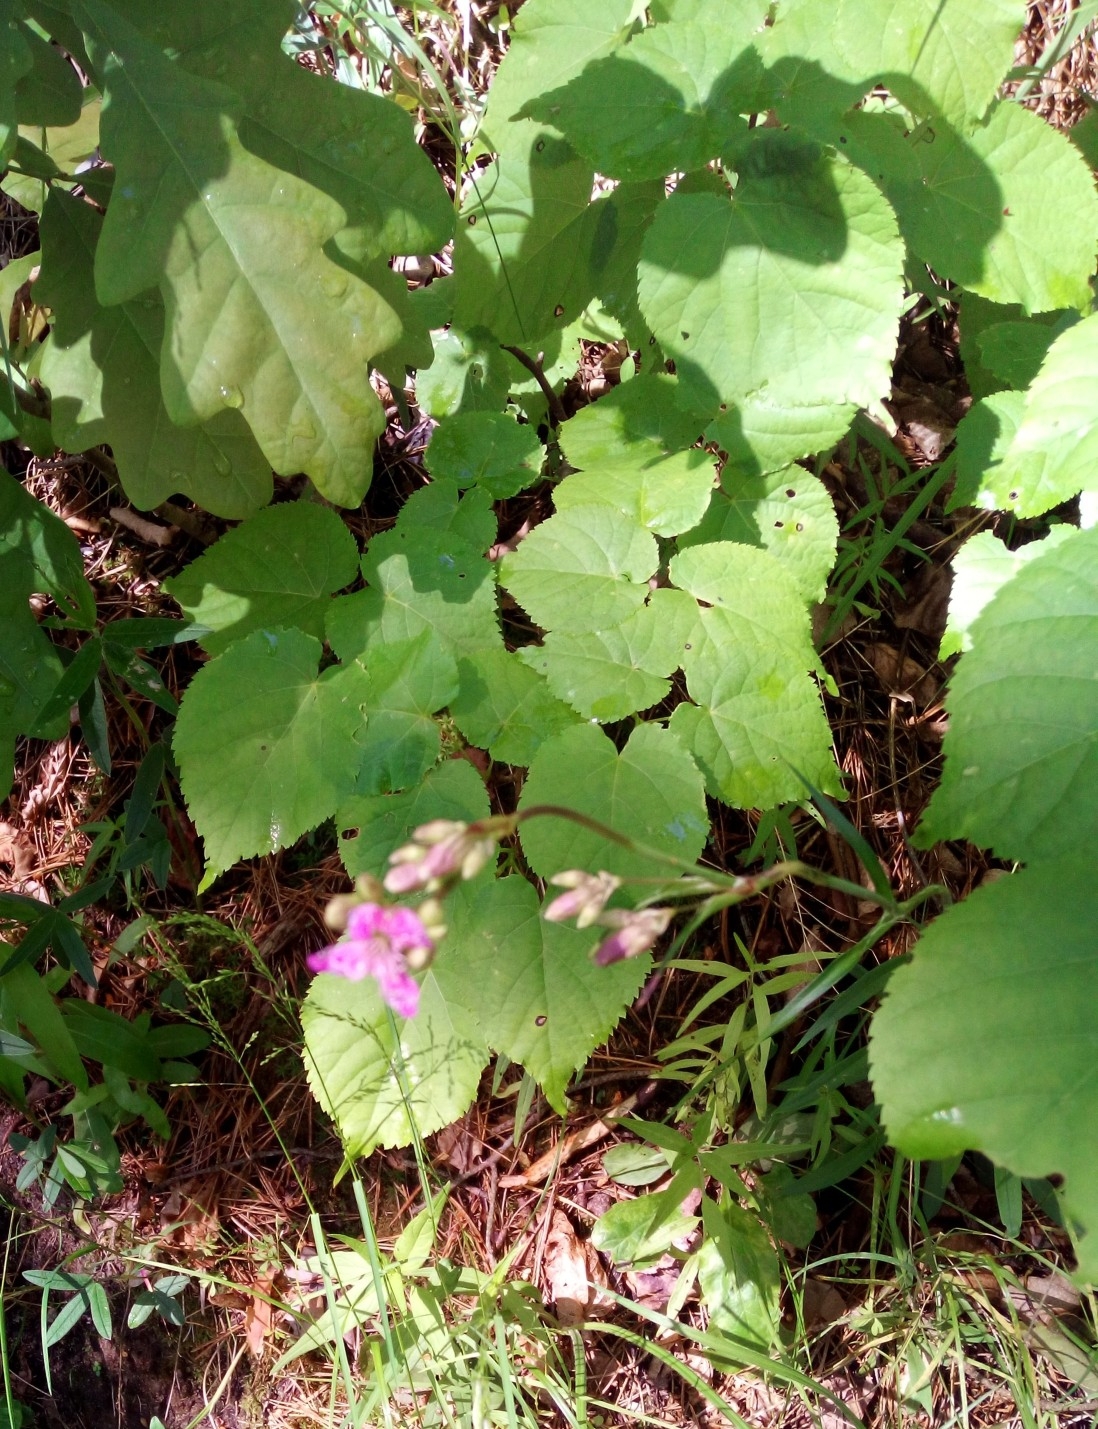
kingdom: Plantae
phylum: Tracheophyta
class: Magnoliopsida
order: Caryophyllales
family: Caryophyllaceae
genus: Viscaria
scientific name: Viscaria vulgaris
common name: Clammy campion
